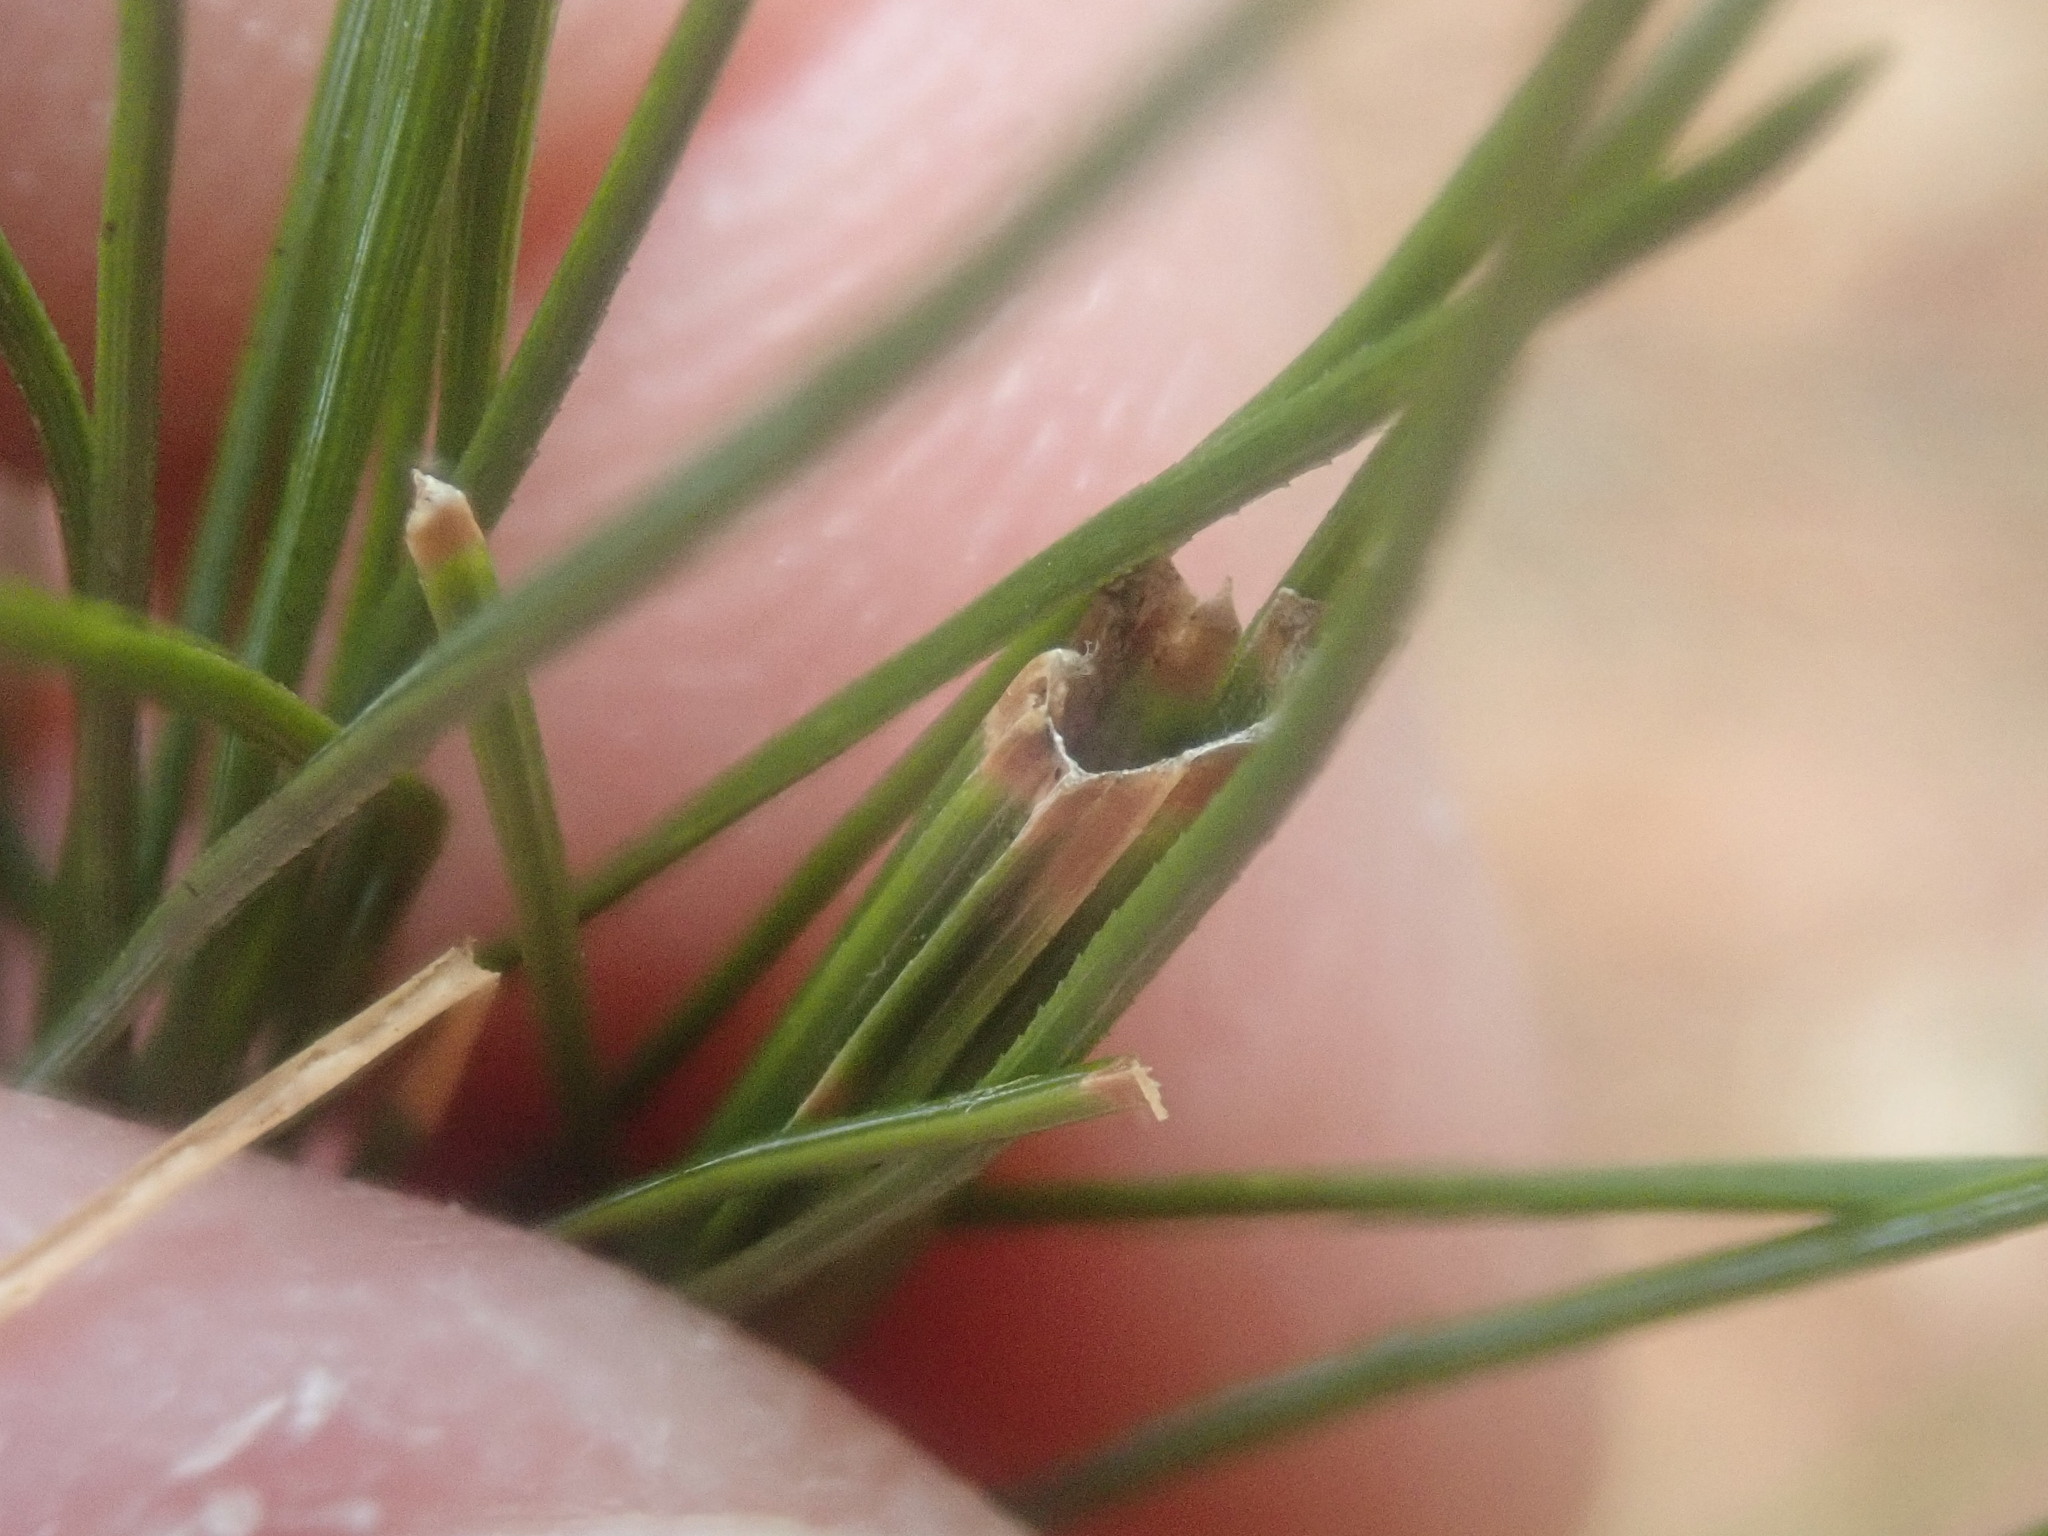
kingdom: Animalia
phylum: Arthropoda
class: Insecta
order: Lepidoptera
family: Tortricidae
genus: Argyrotaenia
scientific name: Argyrotaenia pinatubana
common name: Pine tube moth
